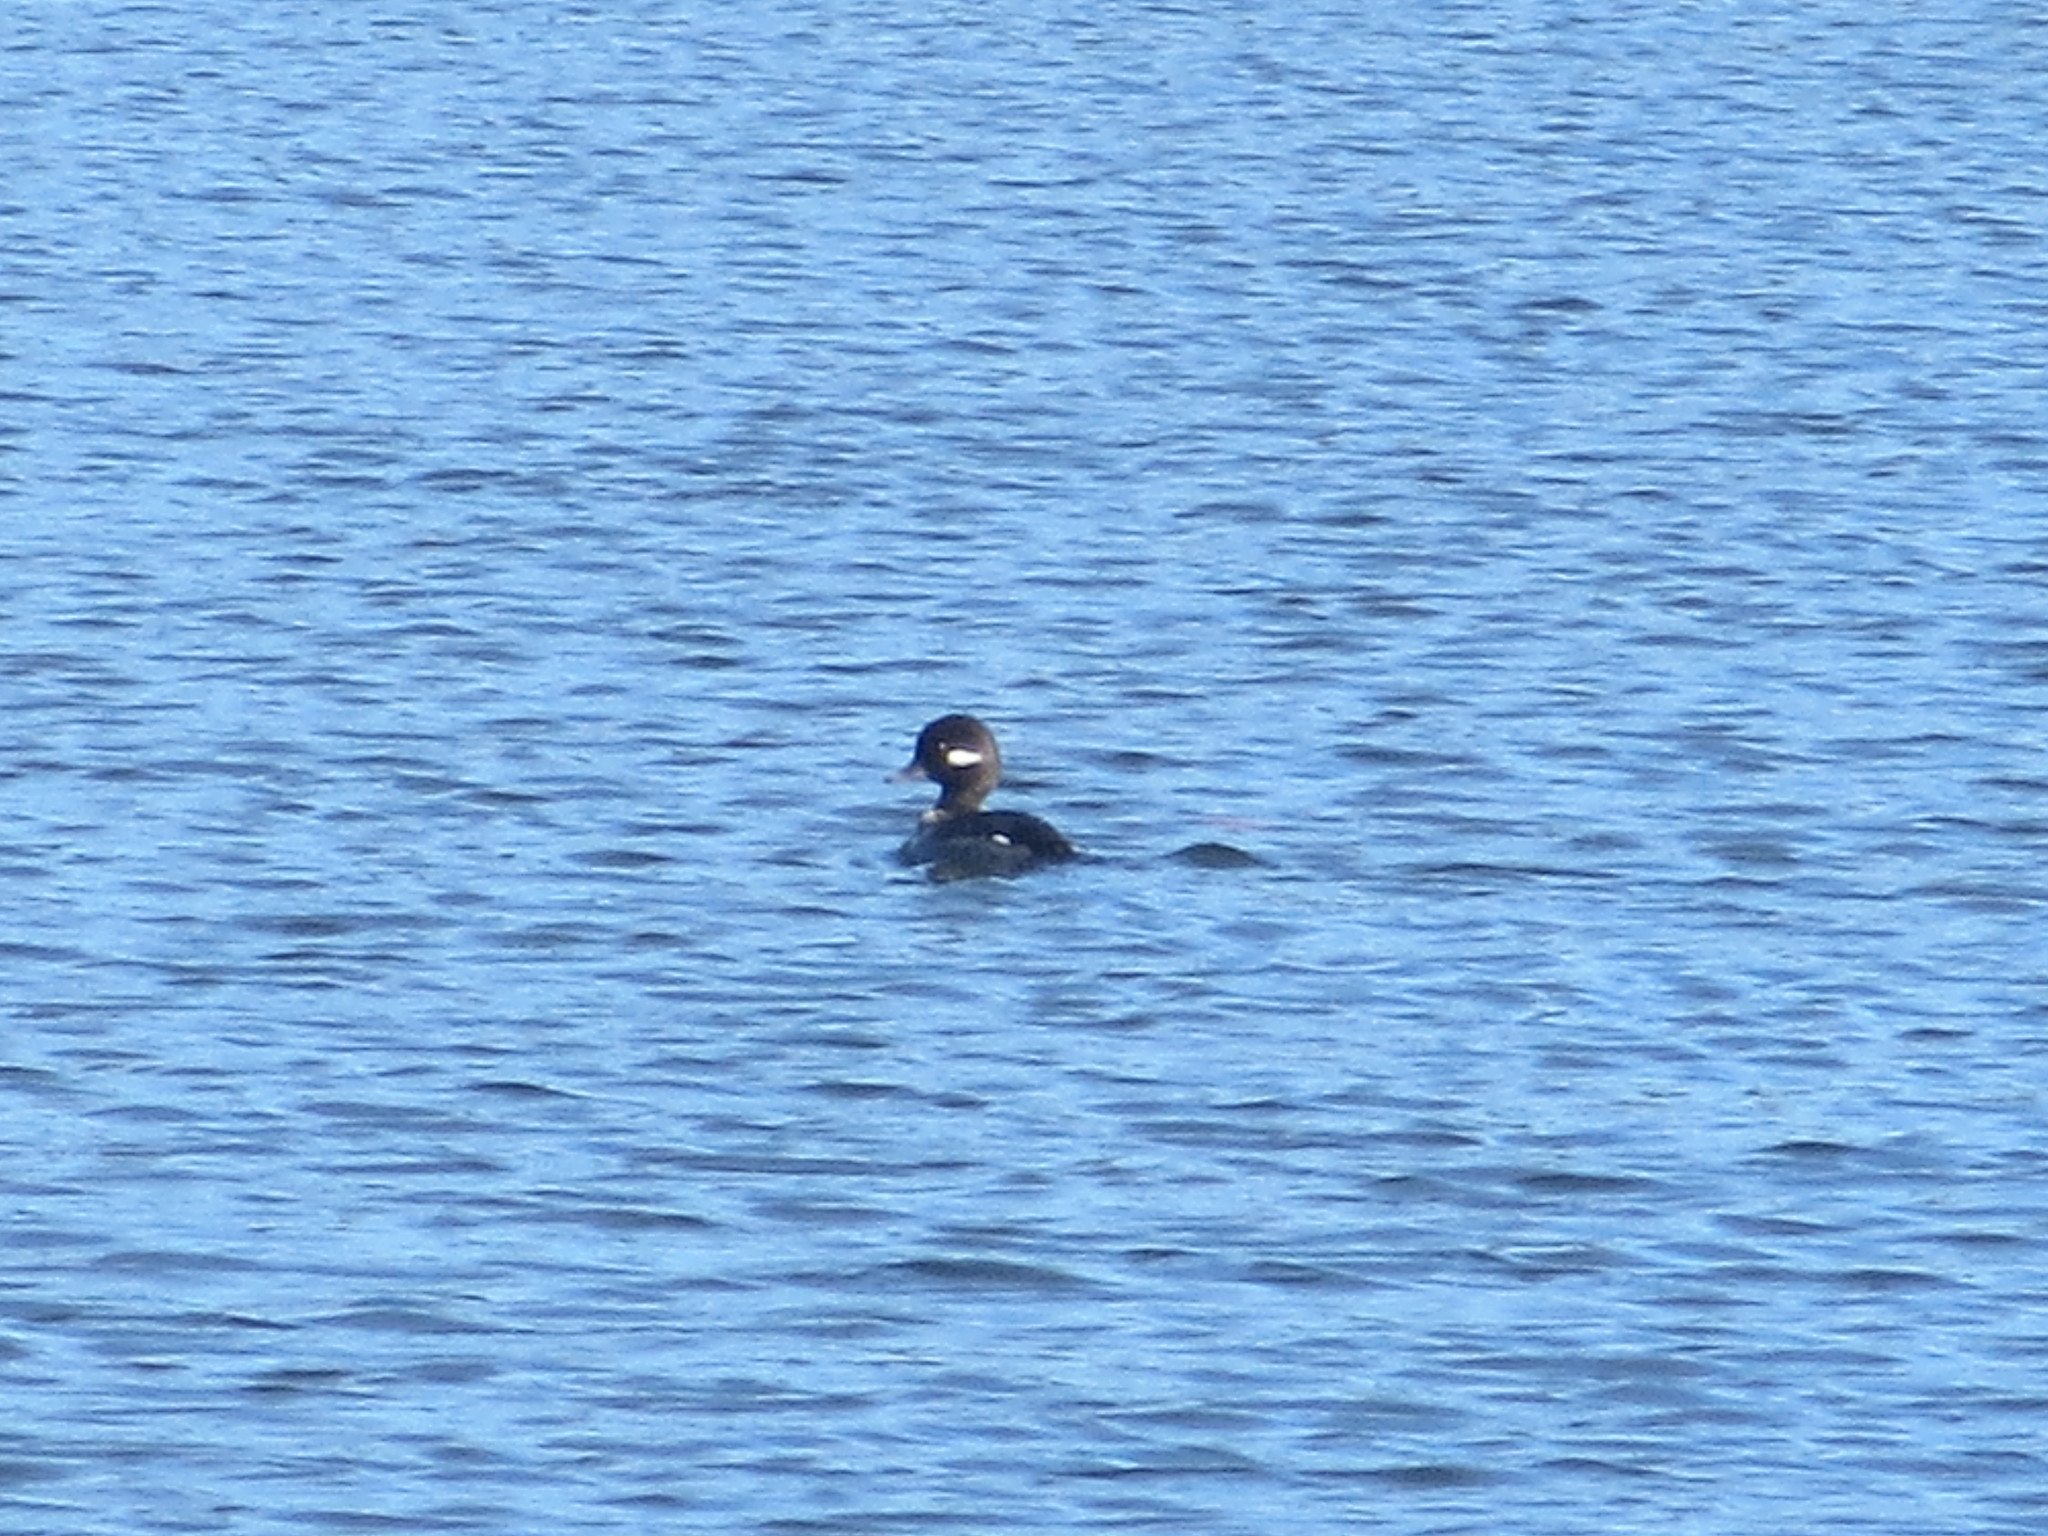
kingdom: Animalia
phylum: Chordata
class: Aves
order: Anseriformes
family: Anatidae
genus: Bucephala
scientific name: Bucephala albeola
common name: Bufflehead
